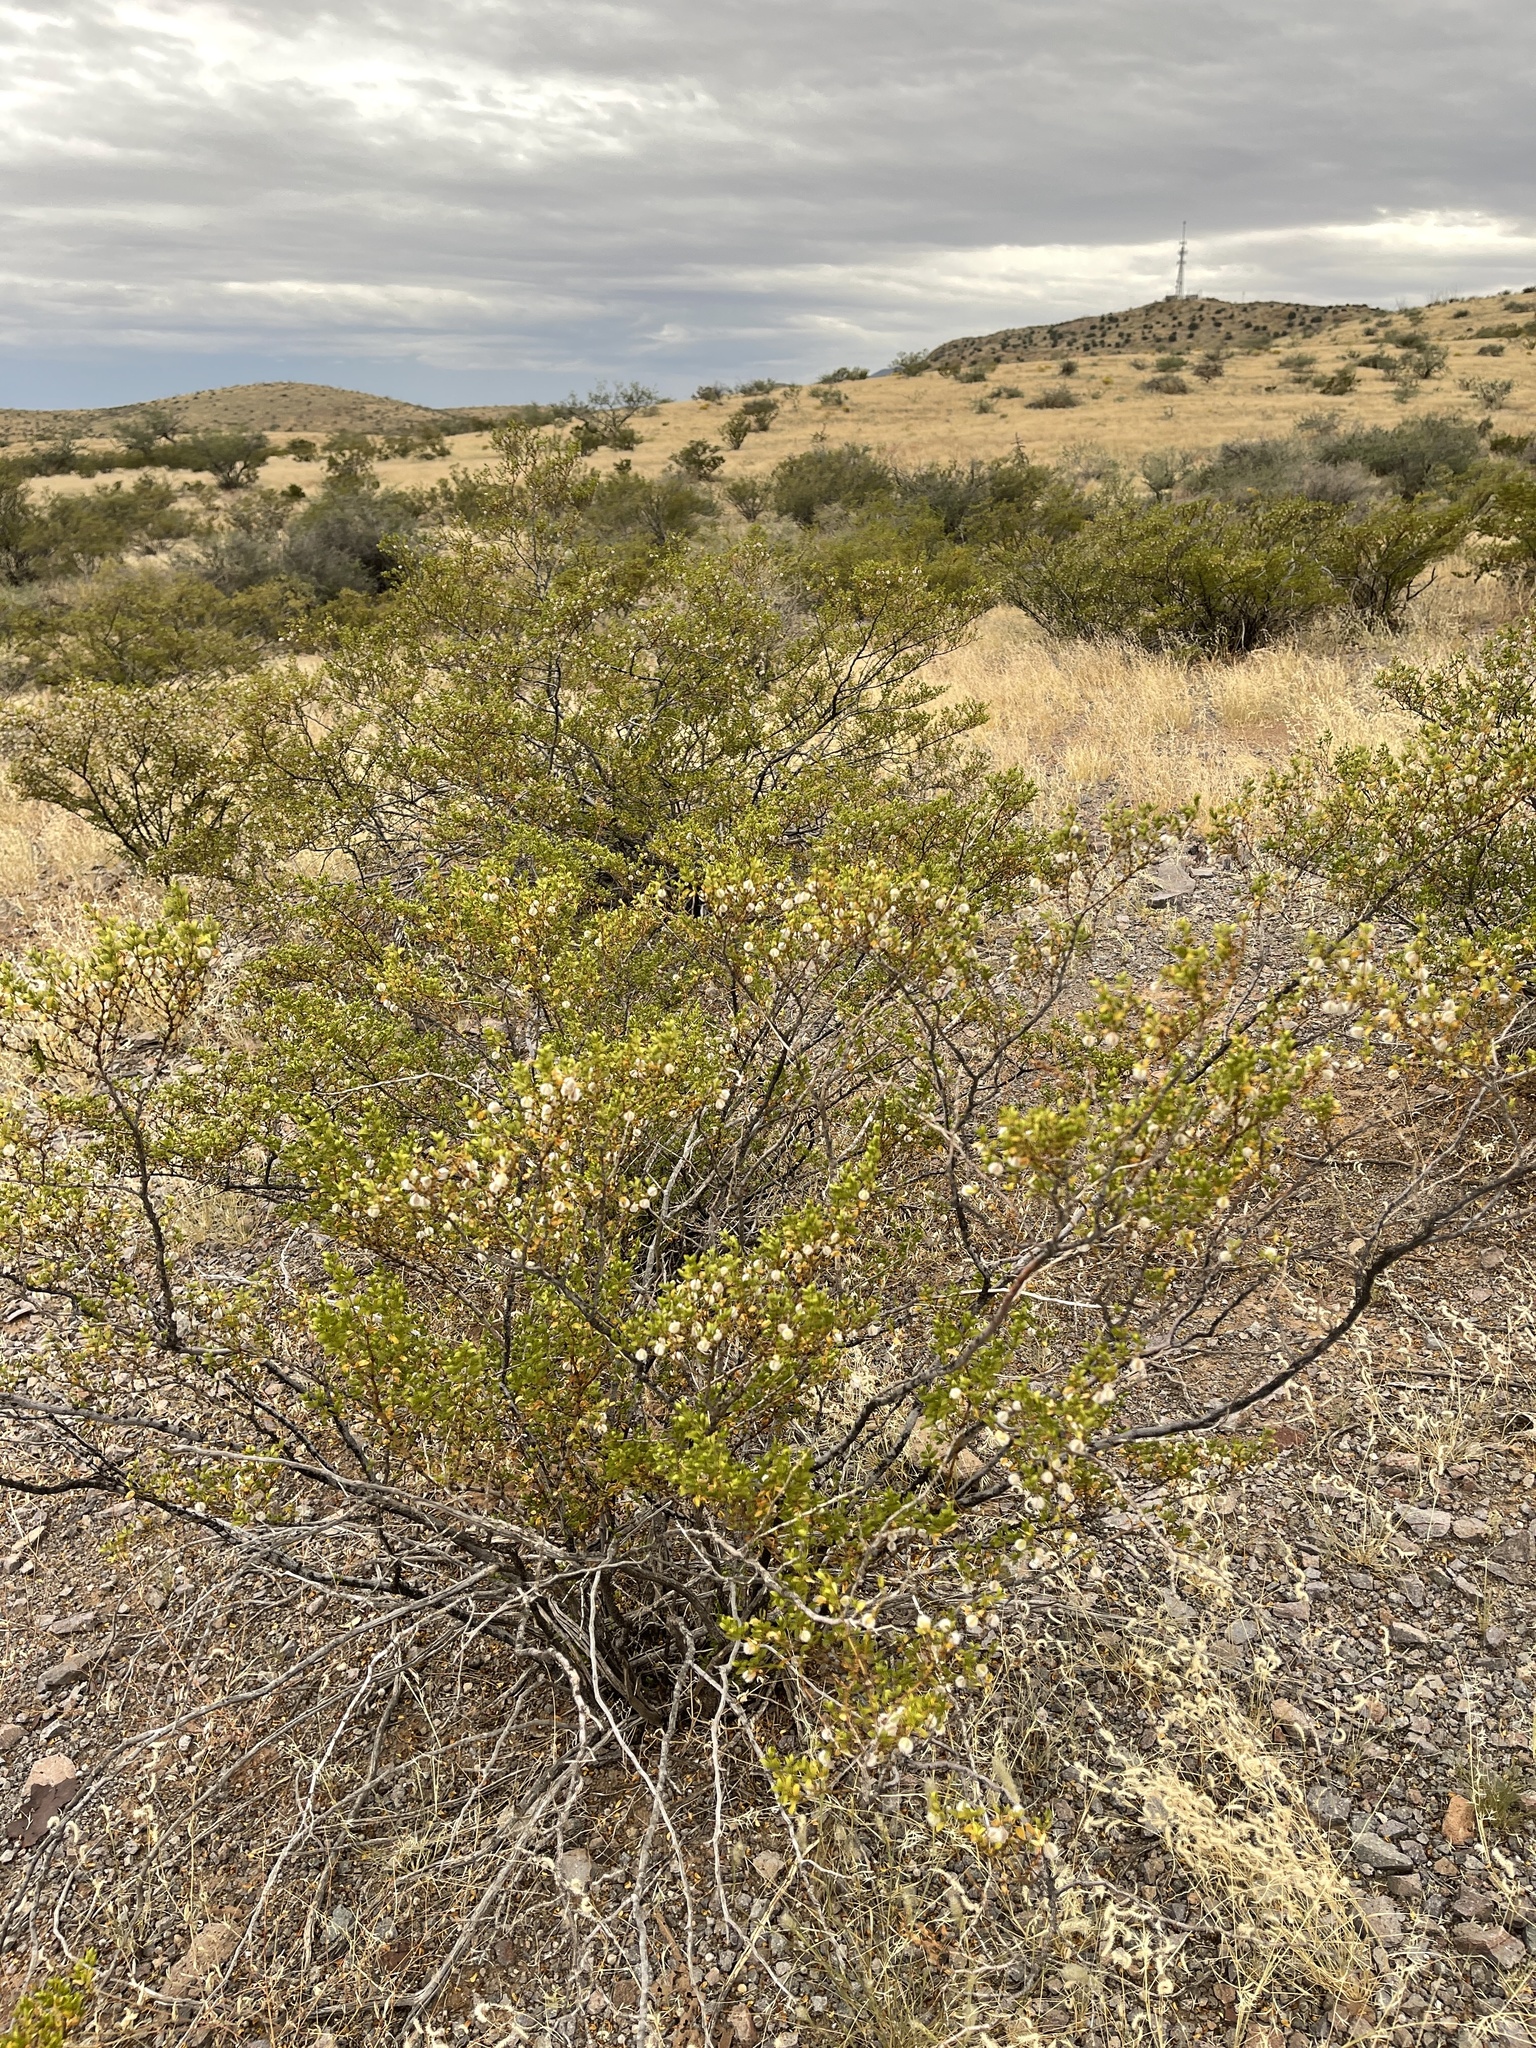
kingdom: Plantae
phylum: Tracheophyta
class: Magnoliopsida
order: Zygophyllales
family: Zygophyllaceae
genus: Larrea
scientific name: Larrea tridentata
